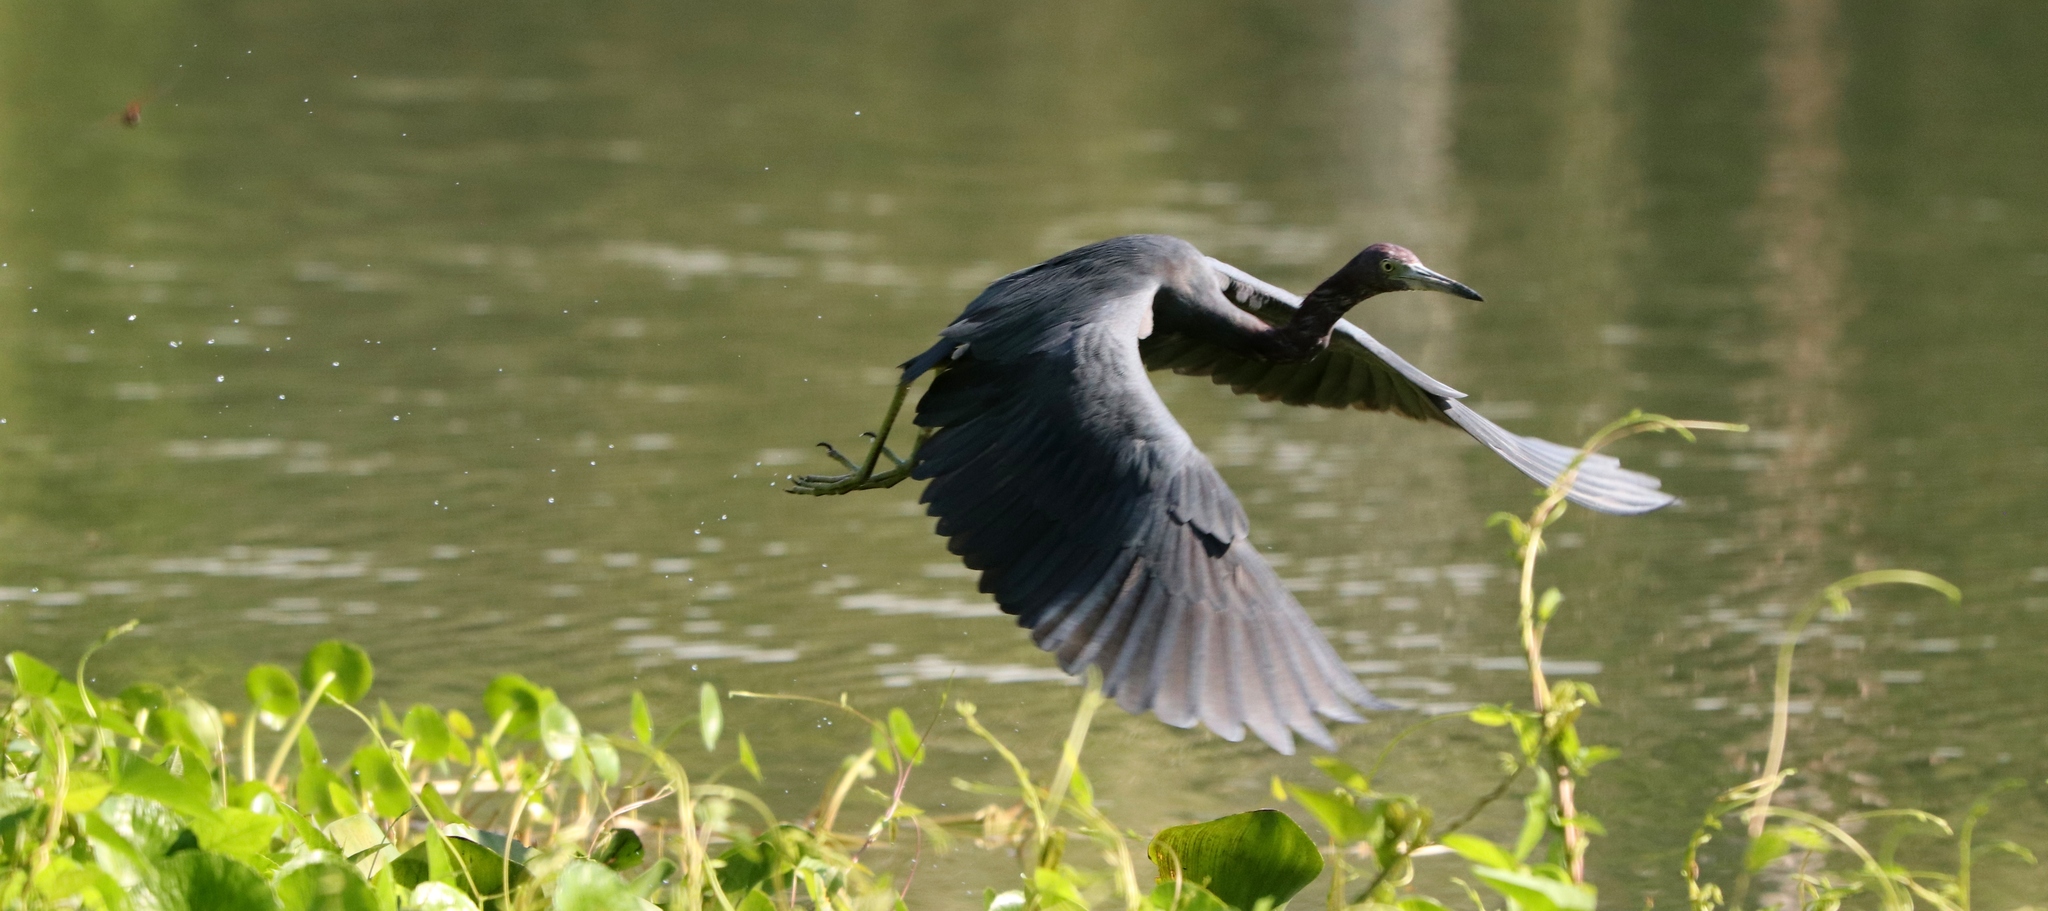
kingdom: Animalia
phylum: Chordata
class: Aves
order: Pelecaniformes
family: Ardeidae
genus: Egretta
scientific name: Egretta caerulea
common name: Little blue heron
